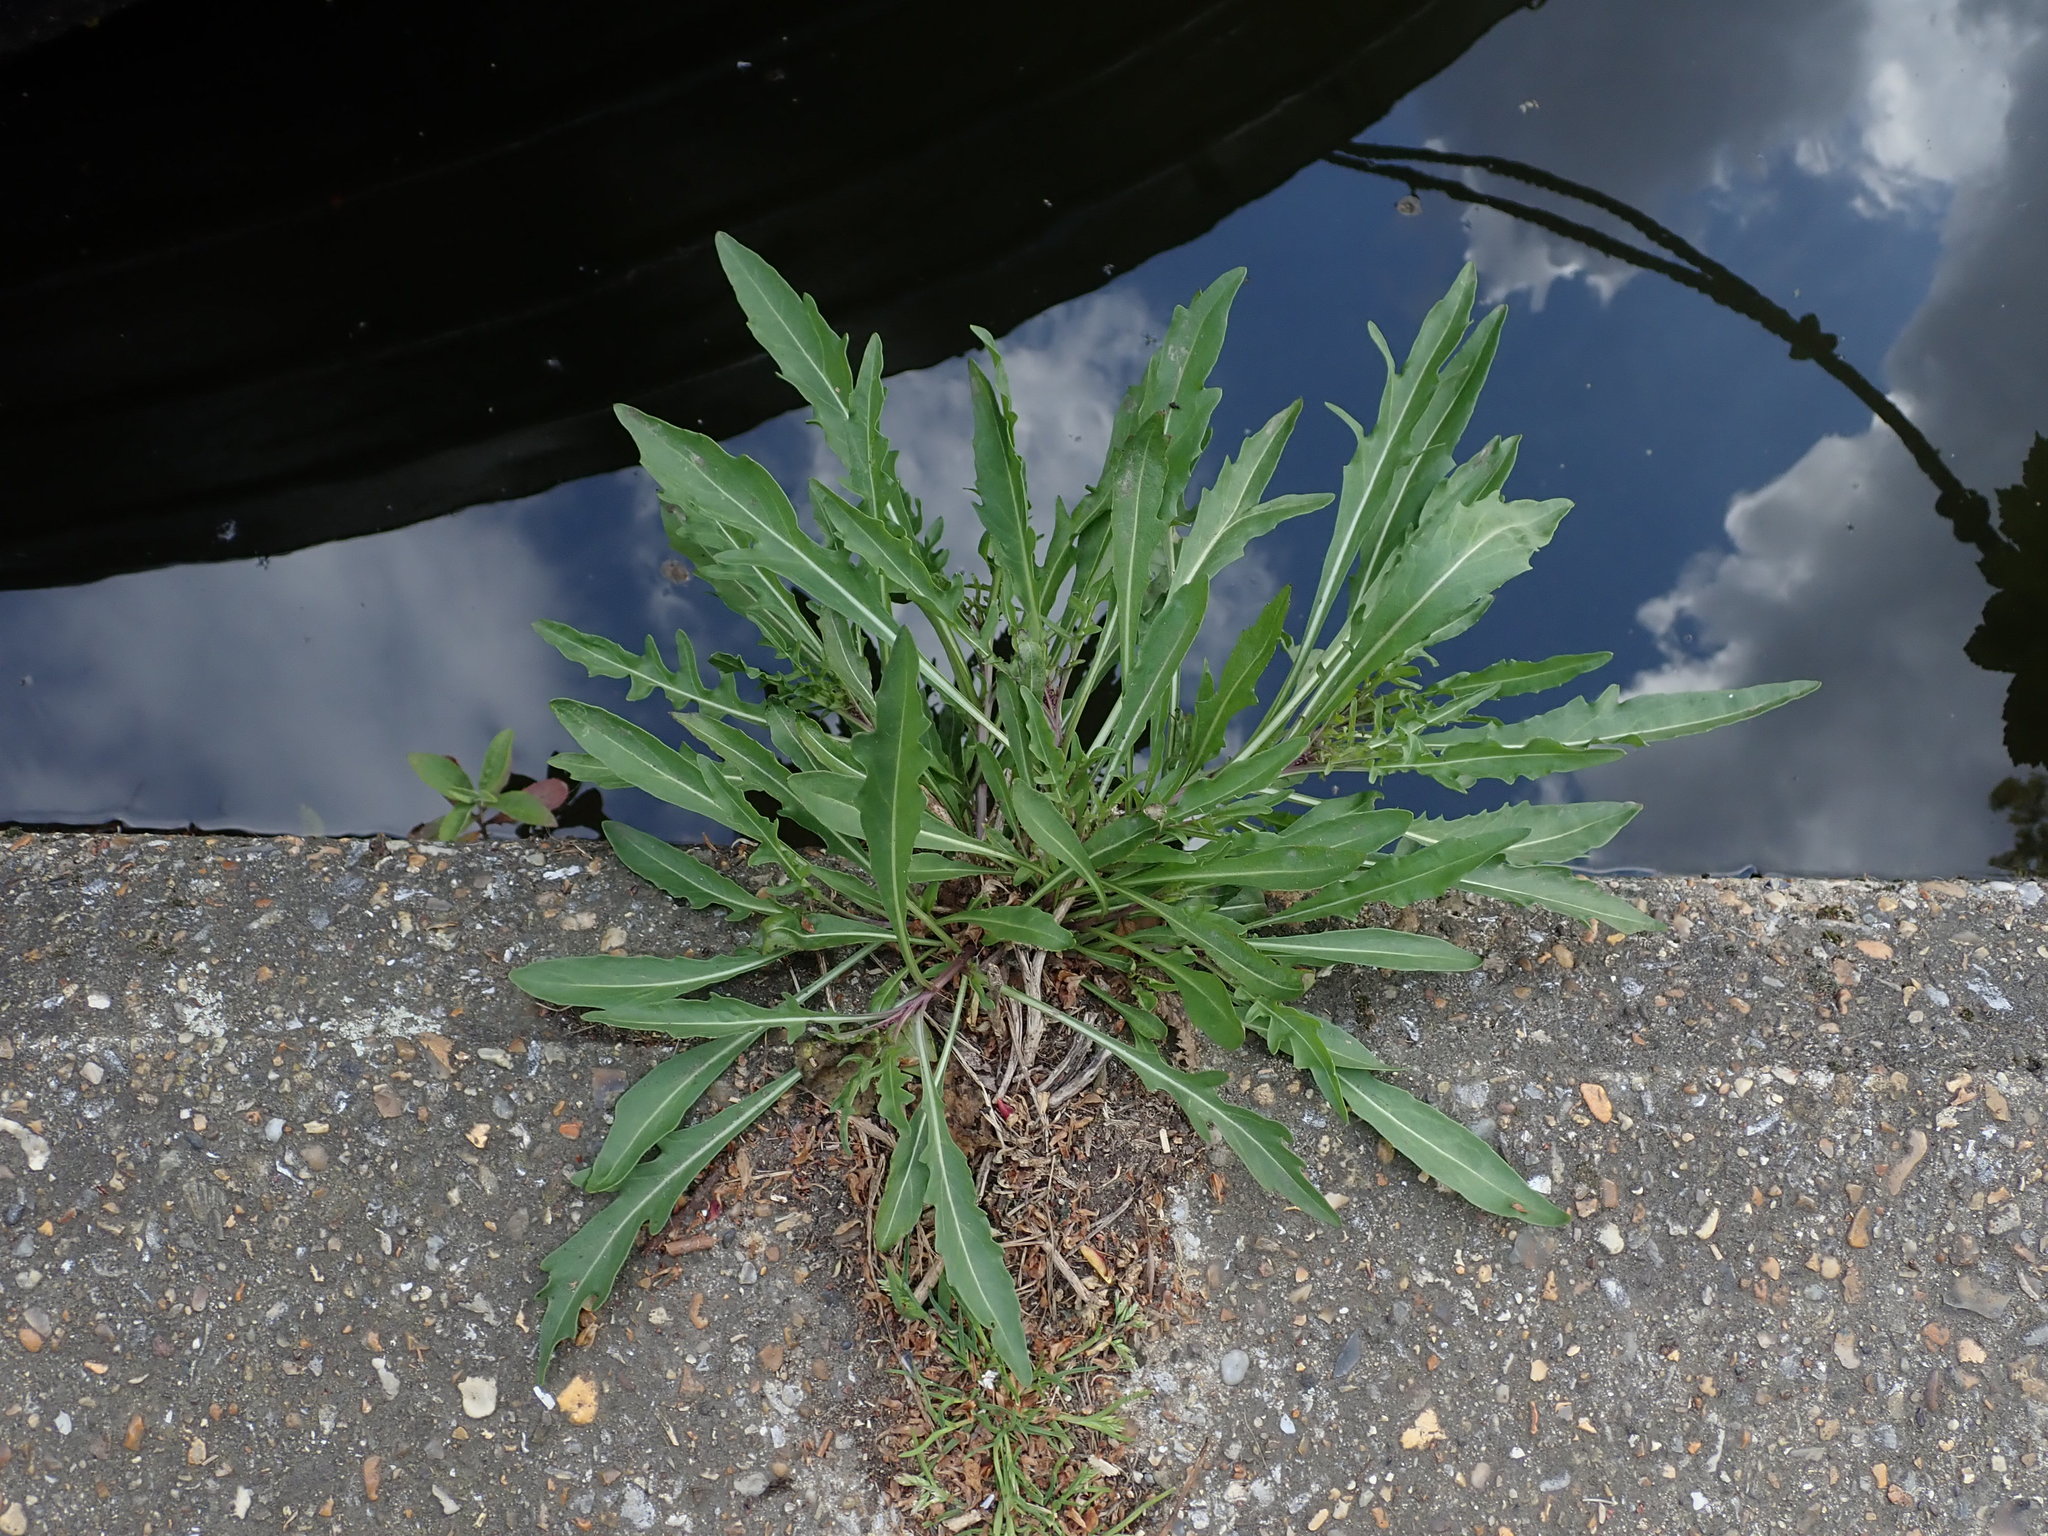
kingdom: Plantae
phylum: Tracheophyta
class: Magnoliopsida
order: Brassicales
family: Brassicaceae
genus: Diplotaxis
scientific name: Diplotaxis tenuifolia
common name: Perennial wall-rocket
